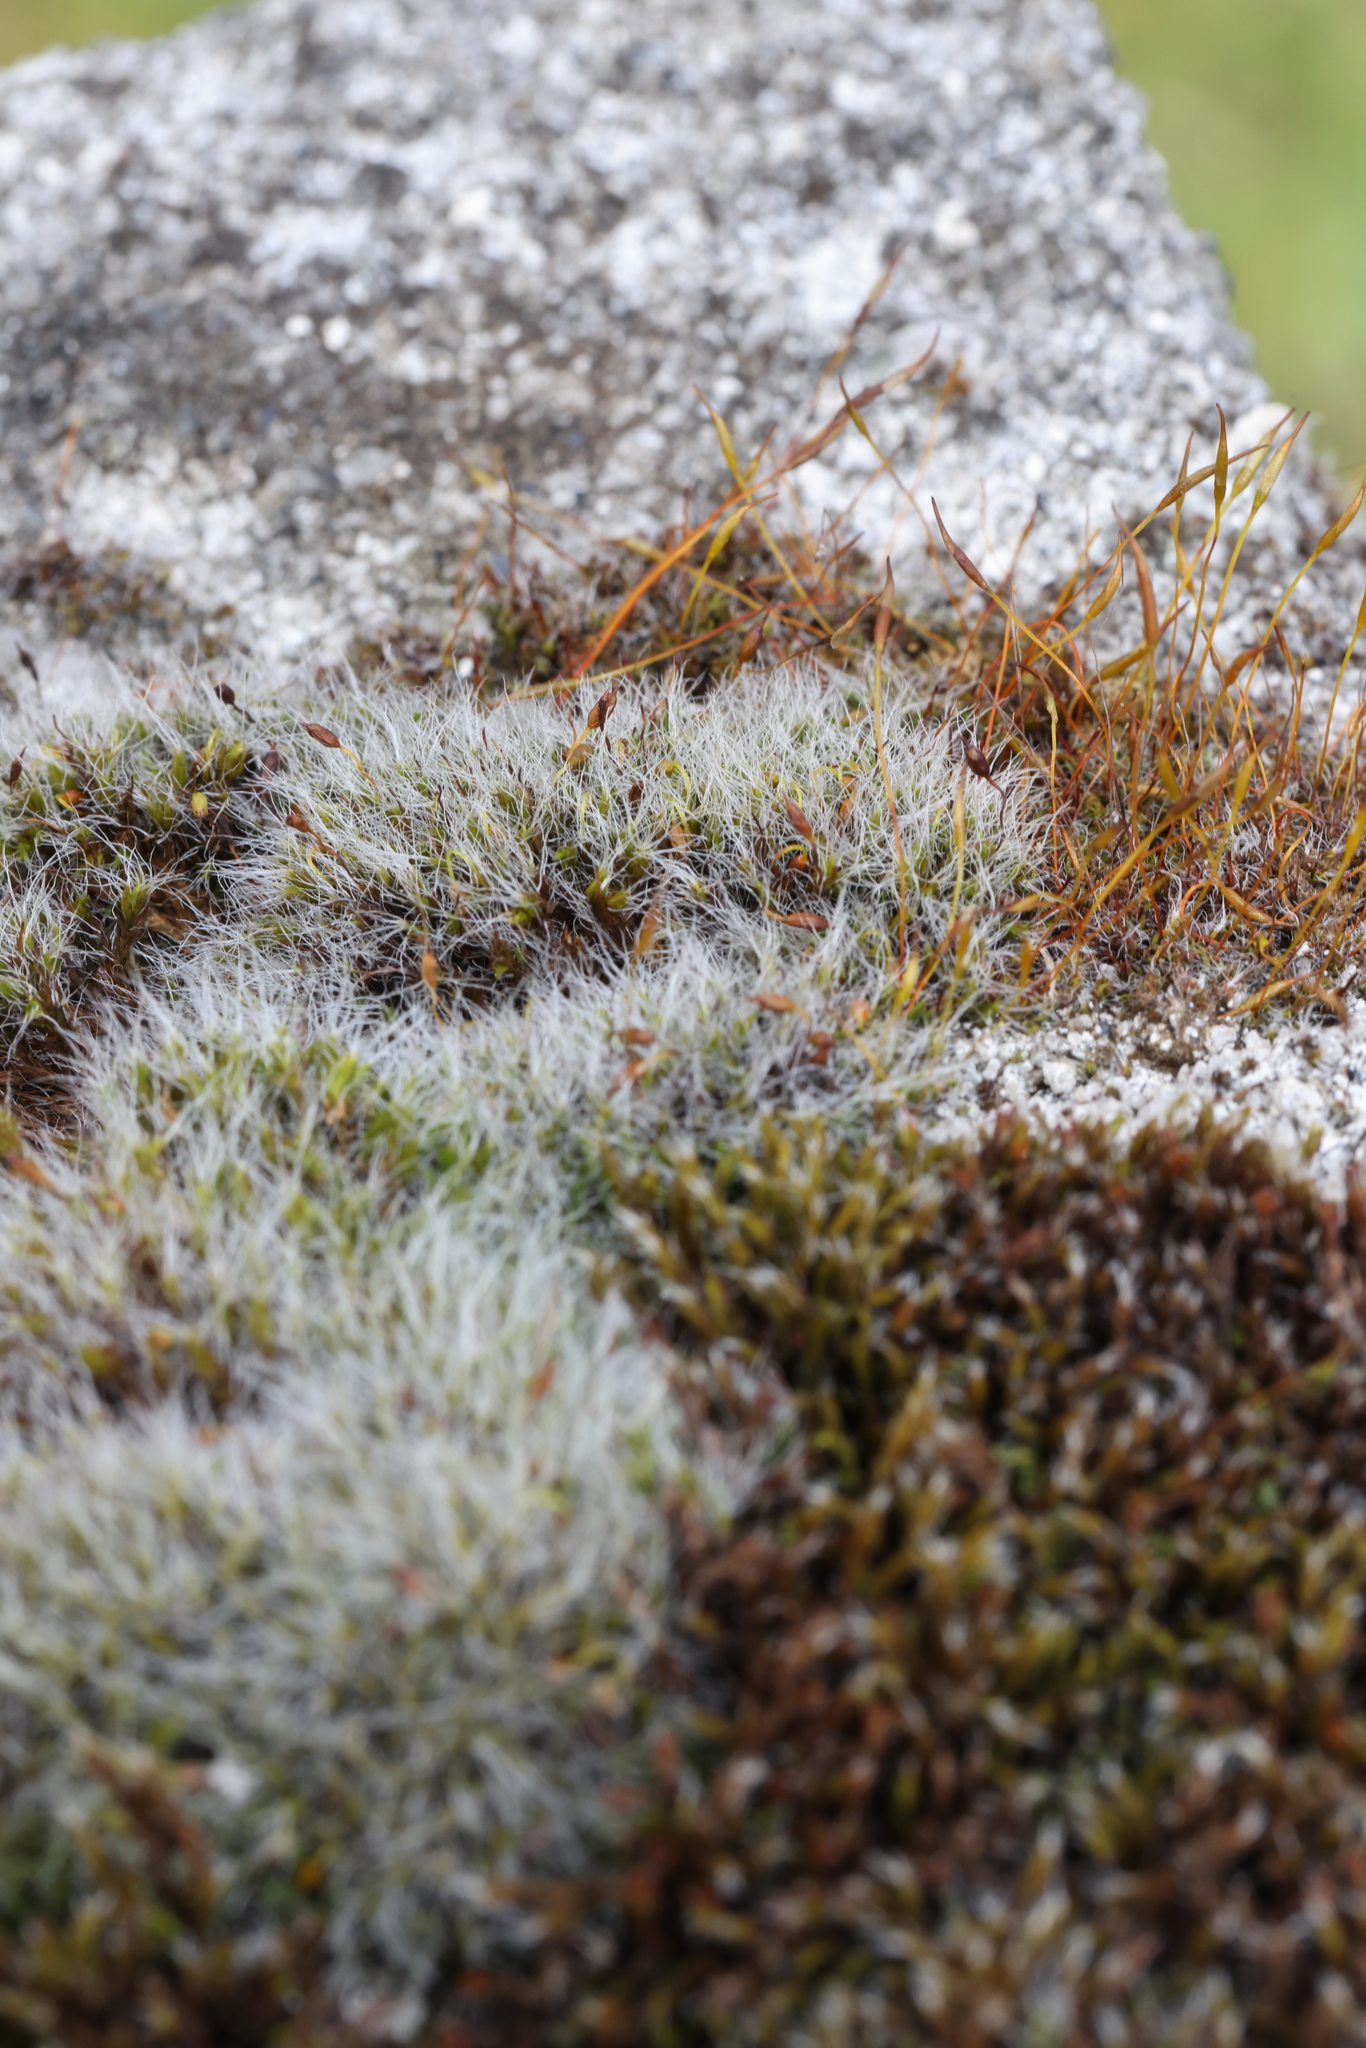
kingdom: Plantae
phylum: Bryophyta
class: Bryopsida
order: Grimmiales
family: Grimmiaceae
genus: Grimmia
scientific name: Grimmia pulvinata
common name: Grey-cushioned grimmia
